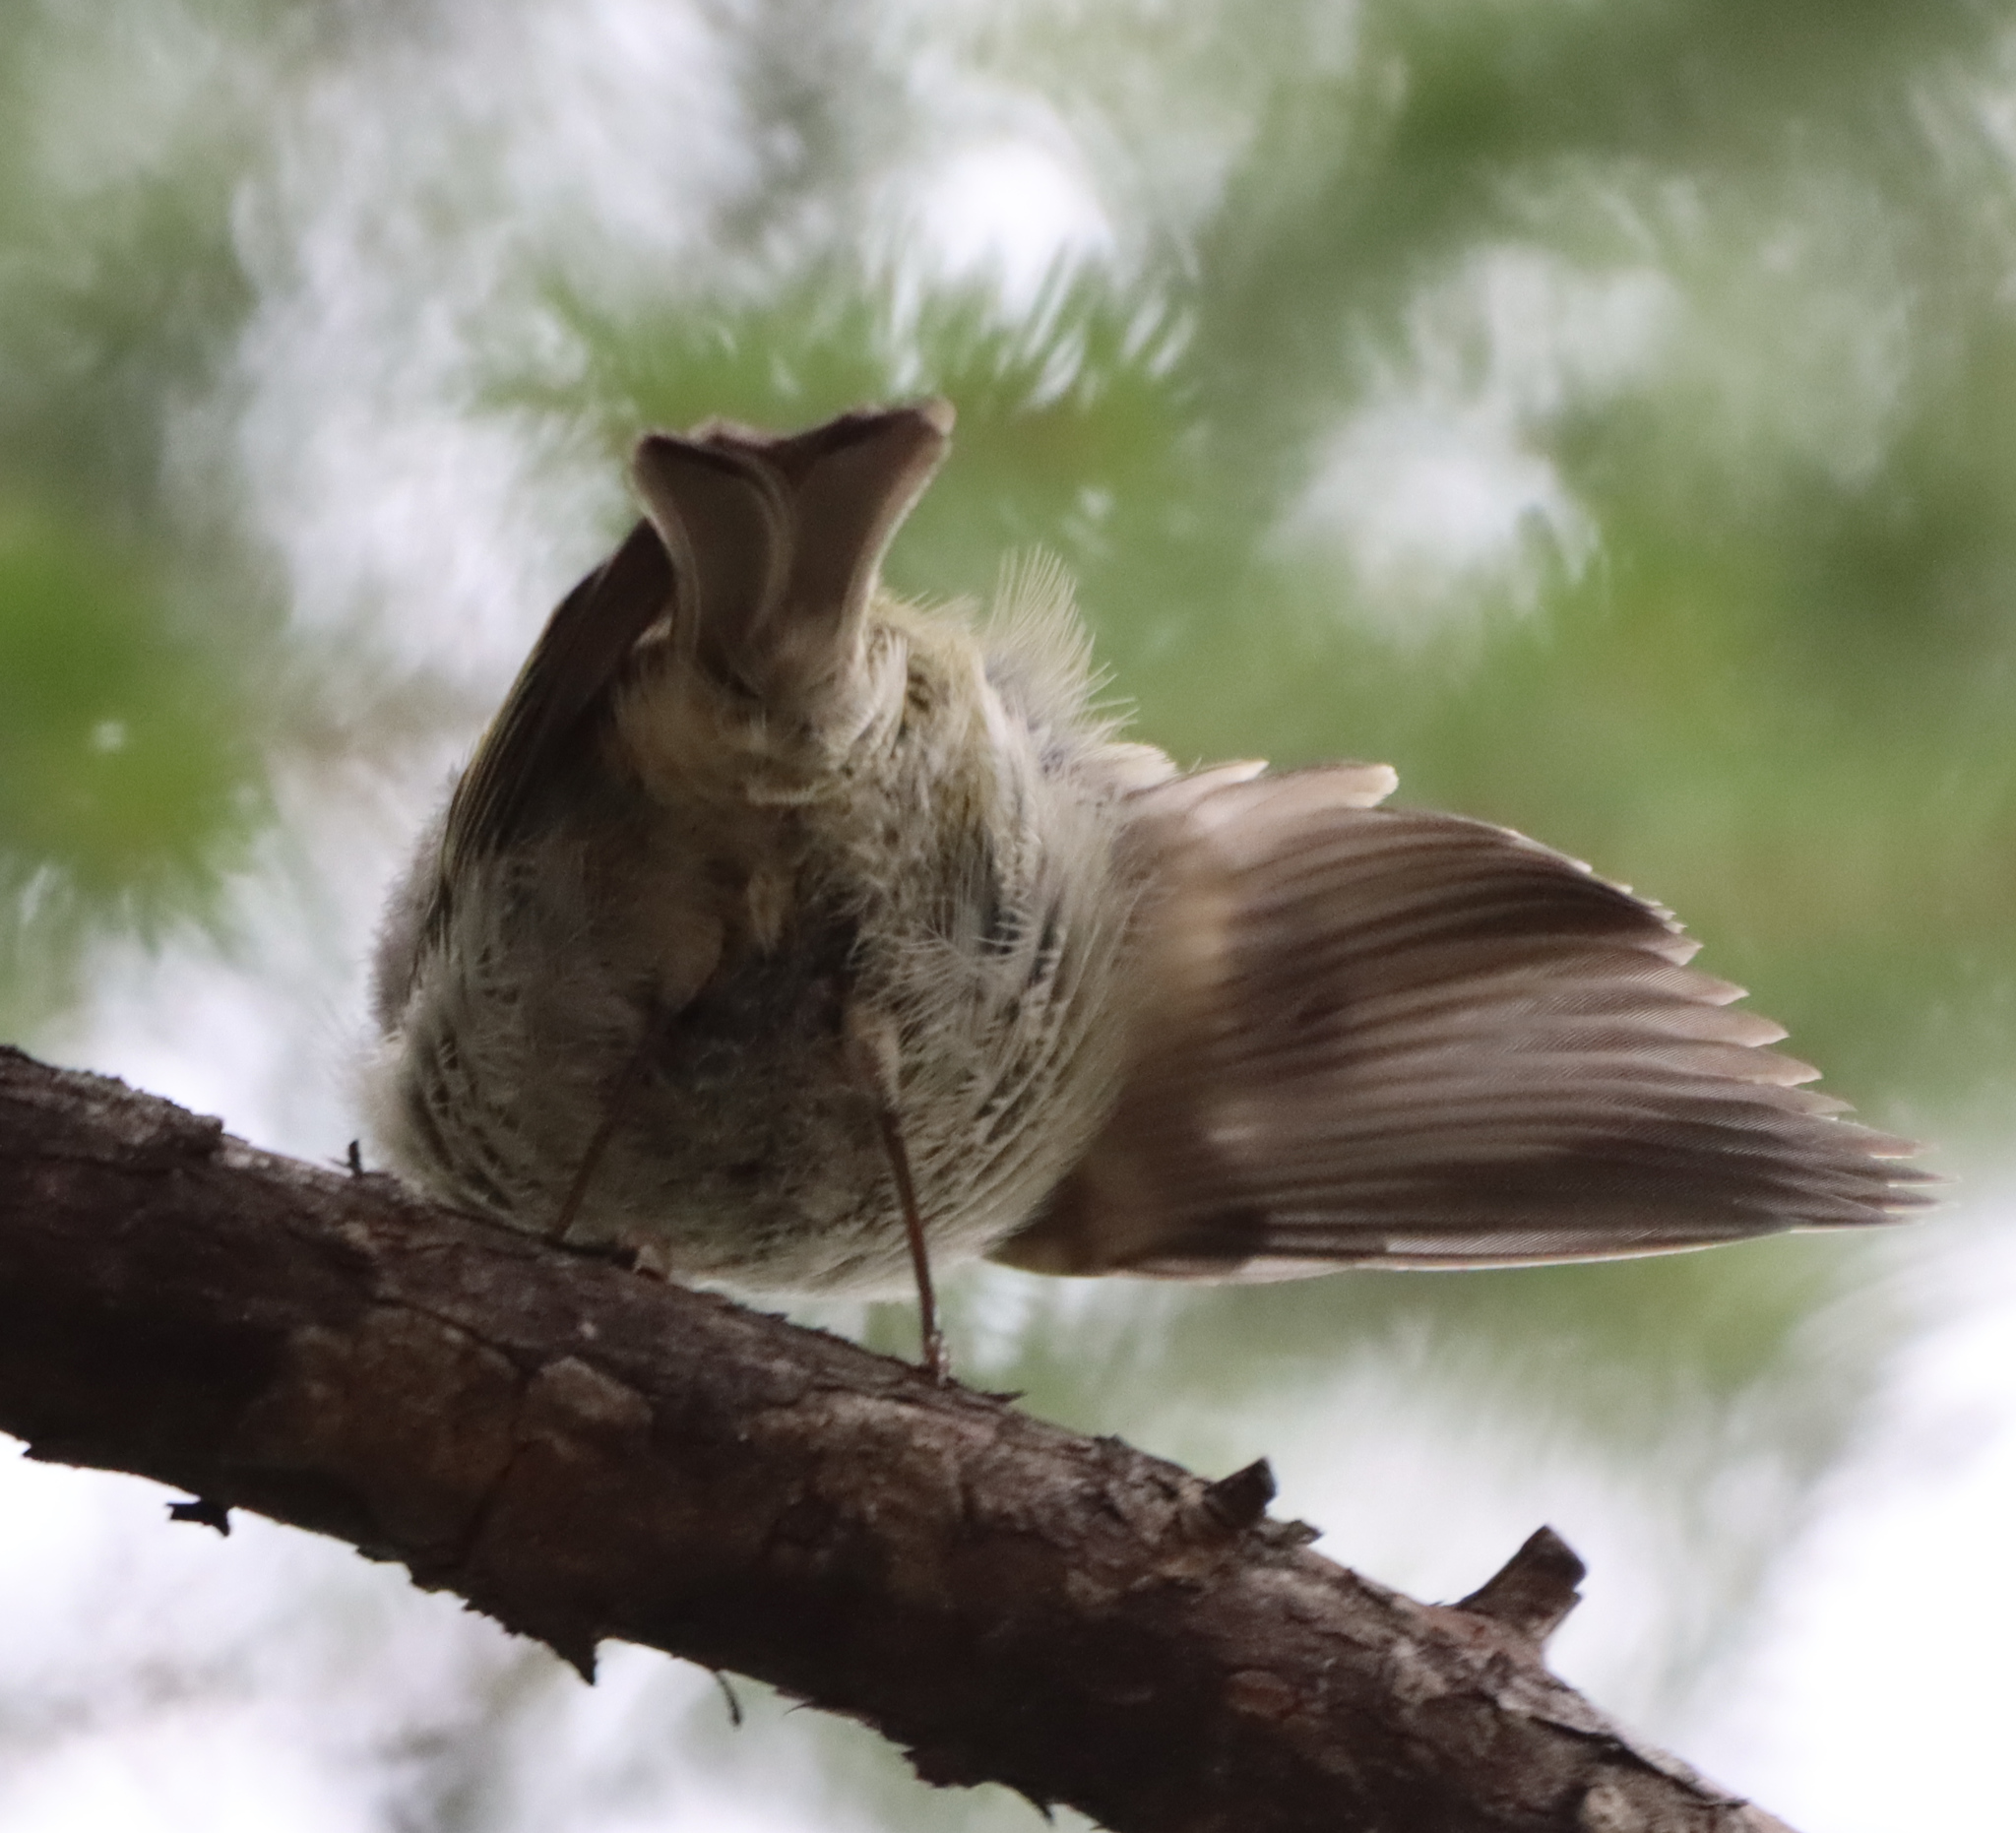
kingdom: Animalia
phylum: Chordata
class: Aves
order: Passeriformes
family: Regulidae
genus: Regulus
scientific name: Regulus satrapa
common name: Golden-crowned kinglet
